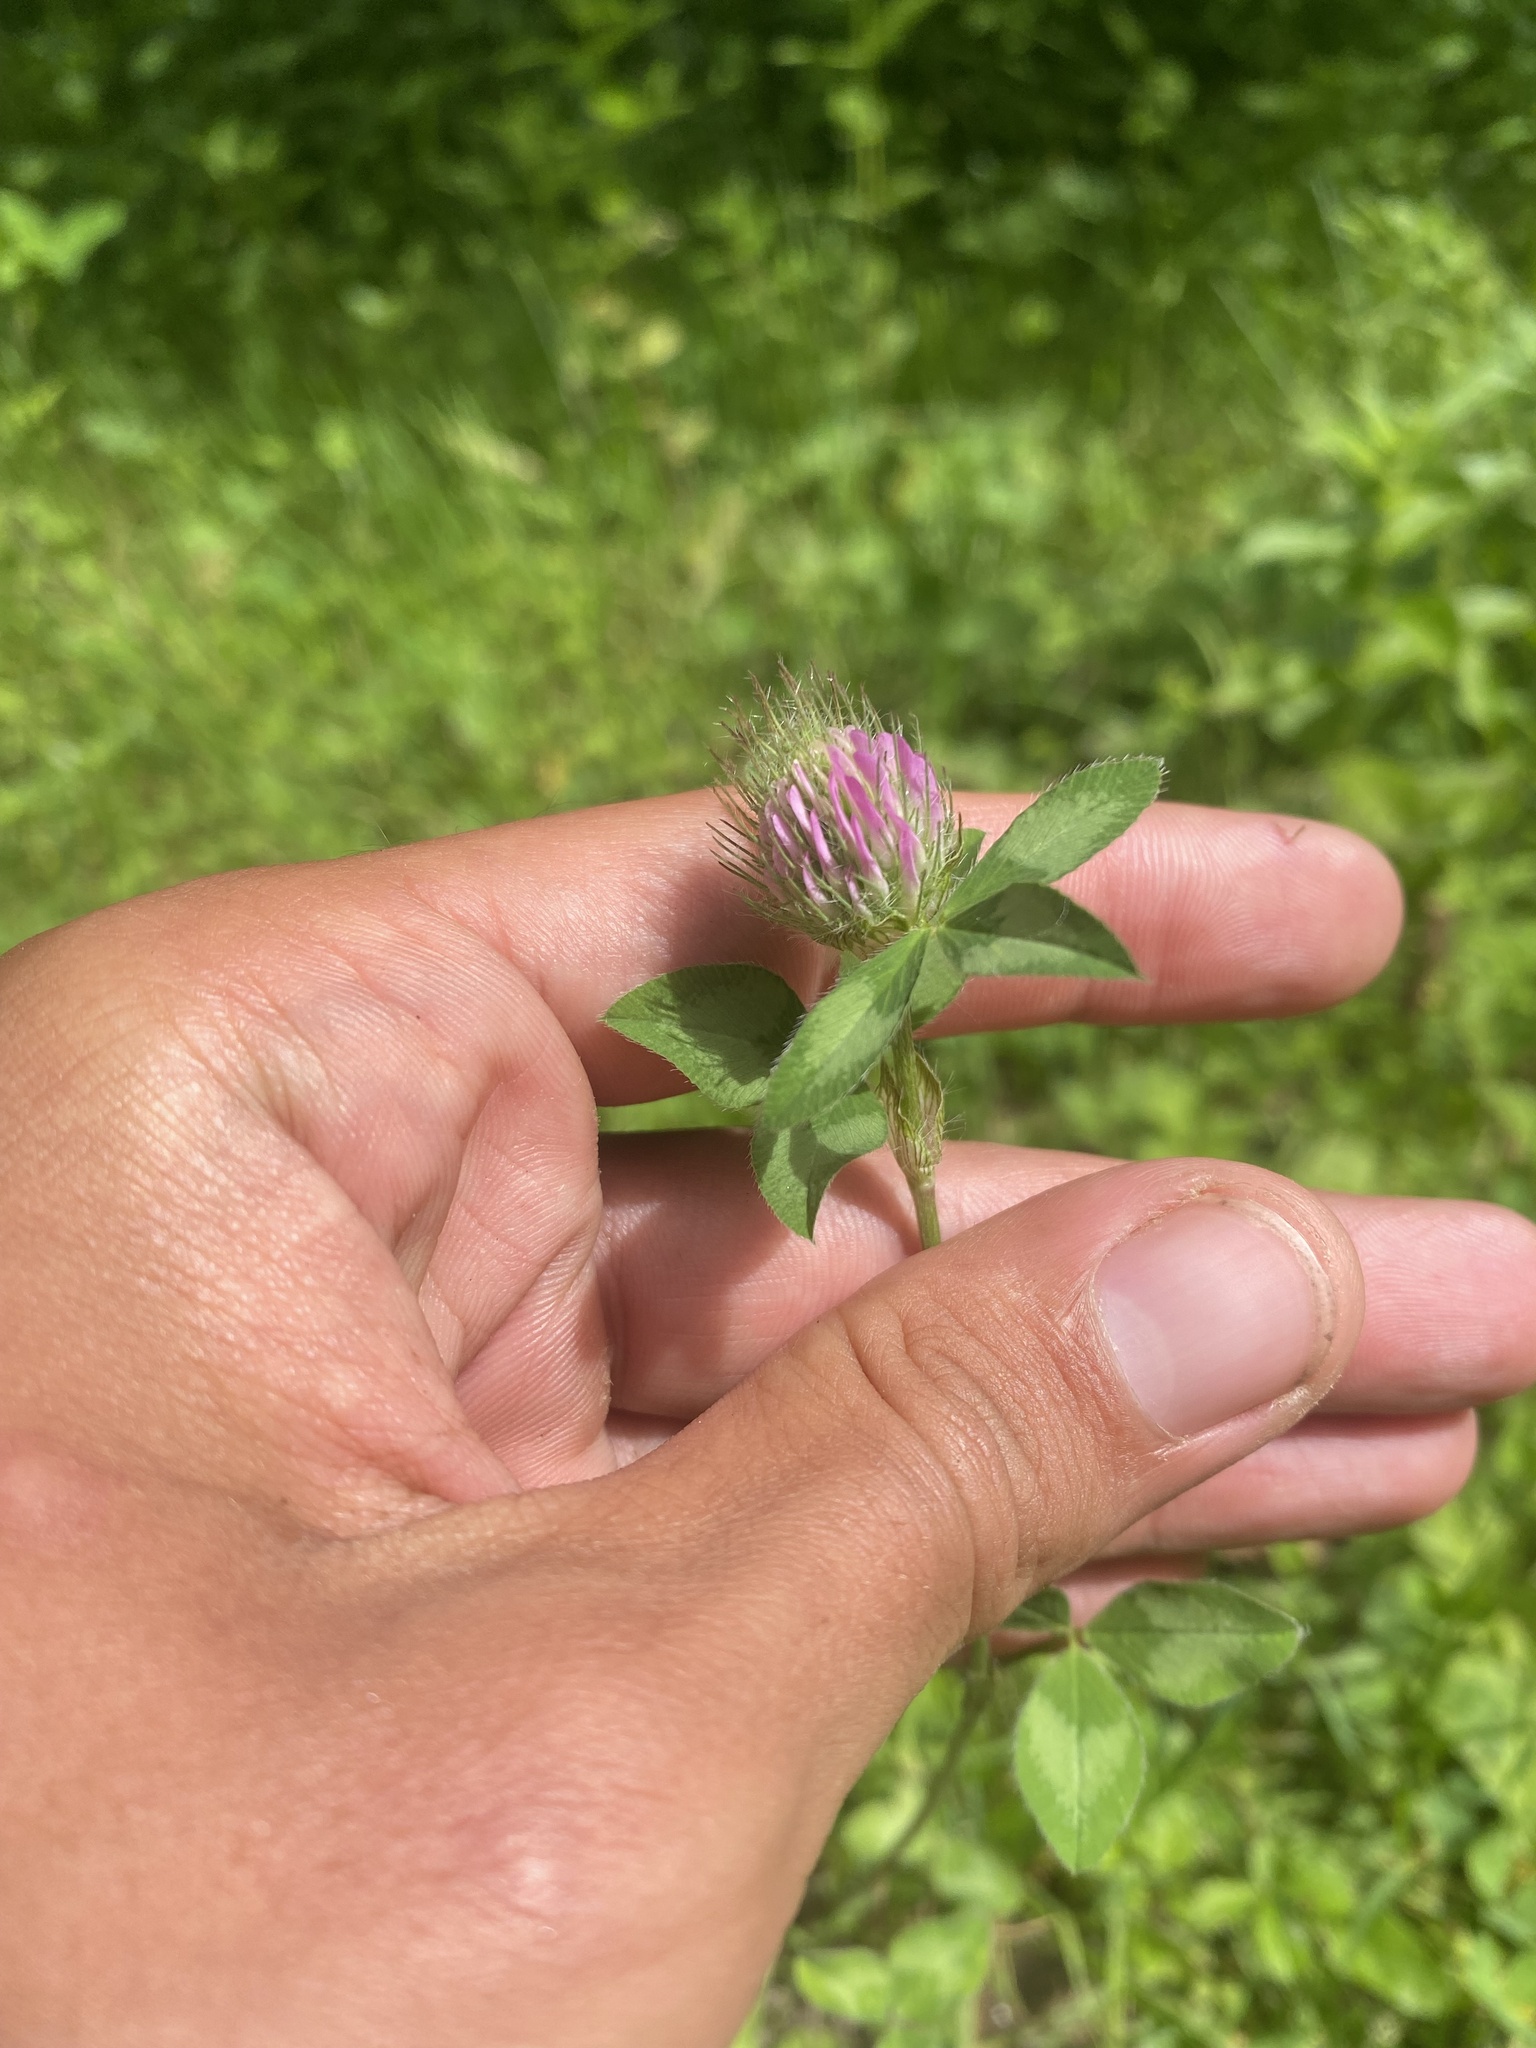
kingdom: Plantae
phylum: Tracheophyta
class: Magnoliopsida
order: Fabales
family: Fabaceae
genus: Trifolium
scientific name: Trifolium pratense
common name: Red clover
